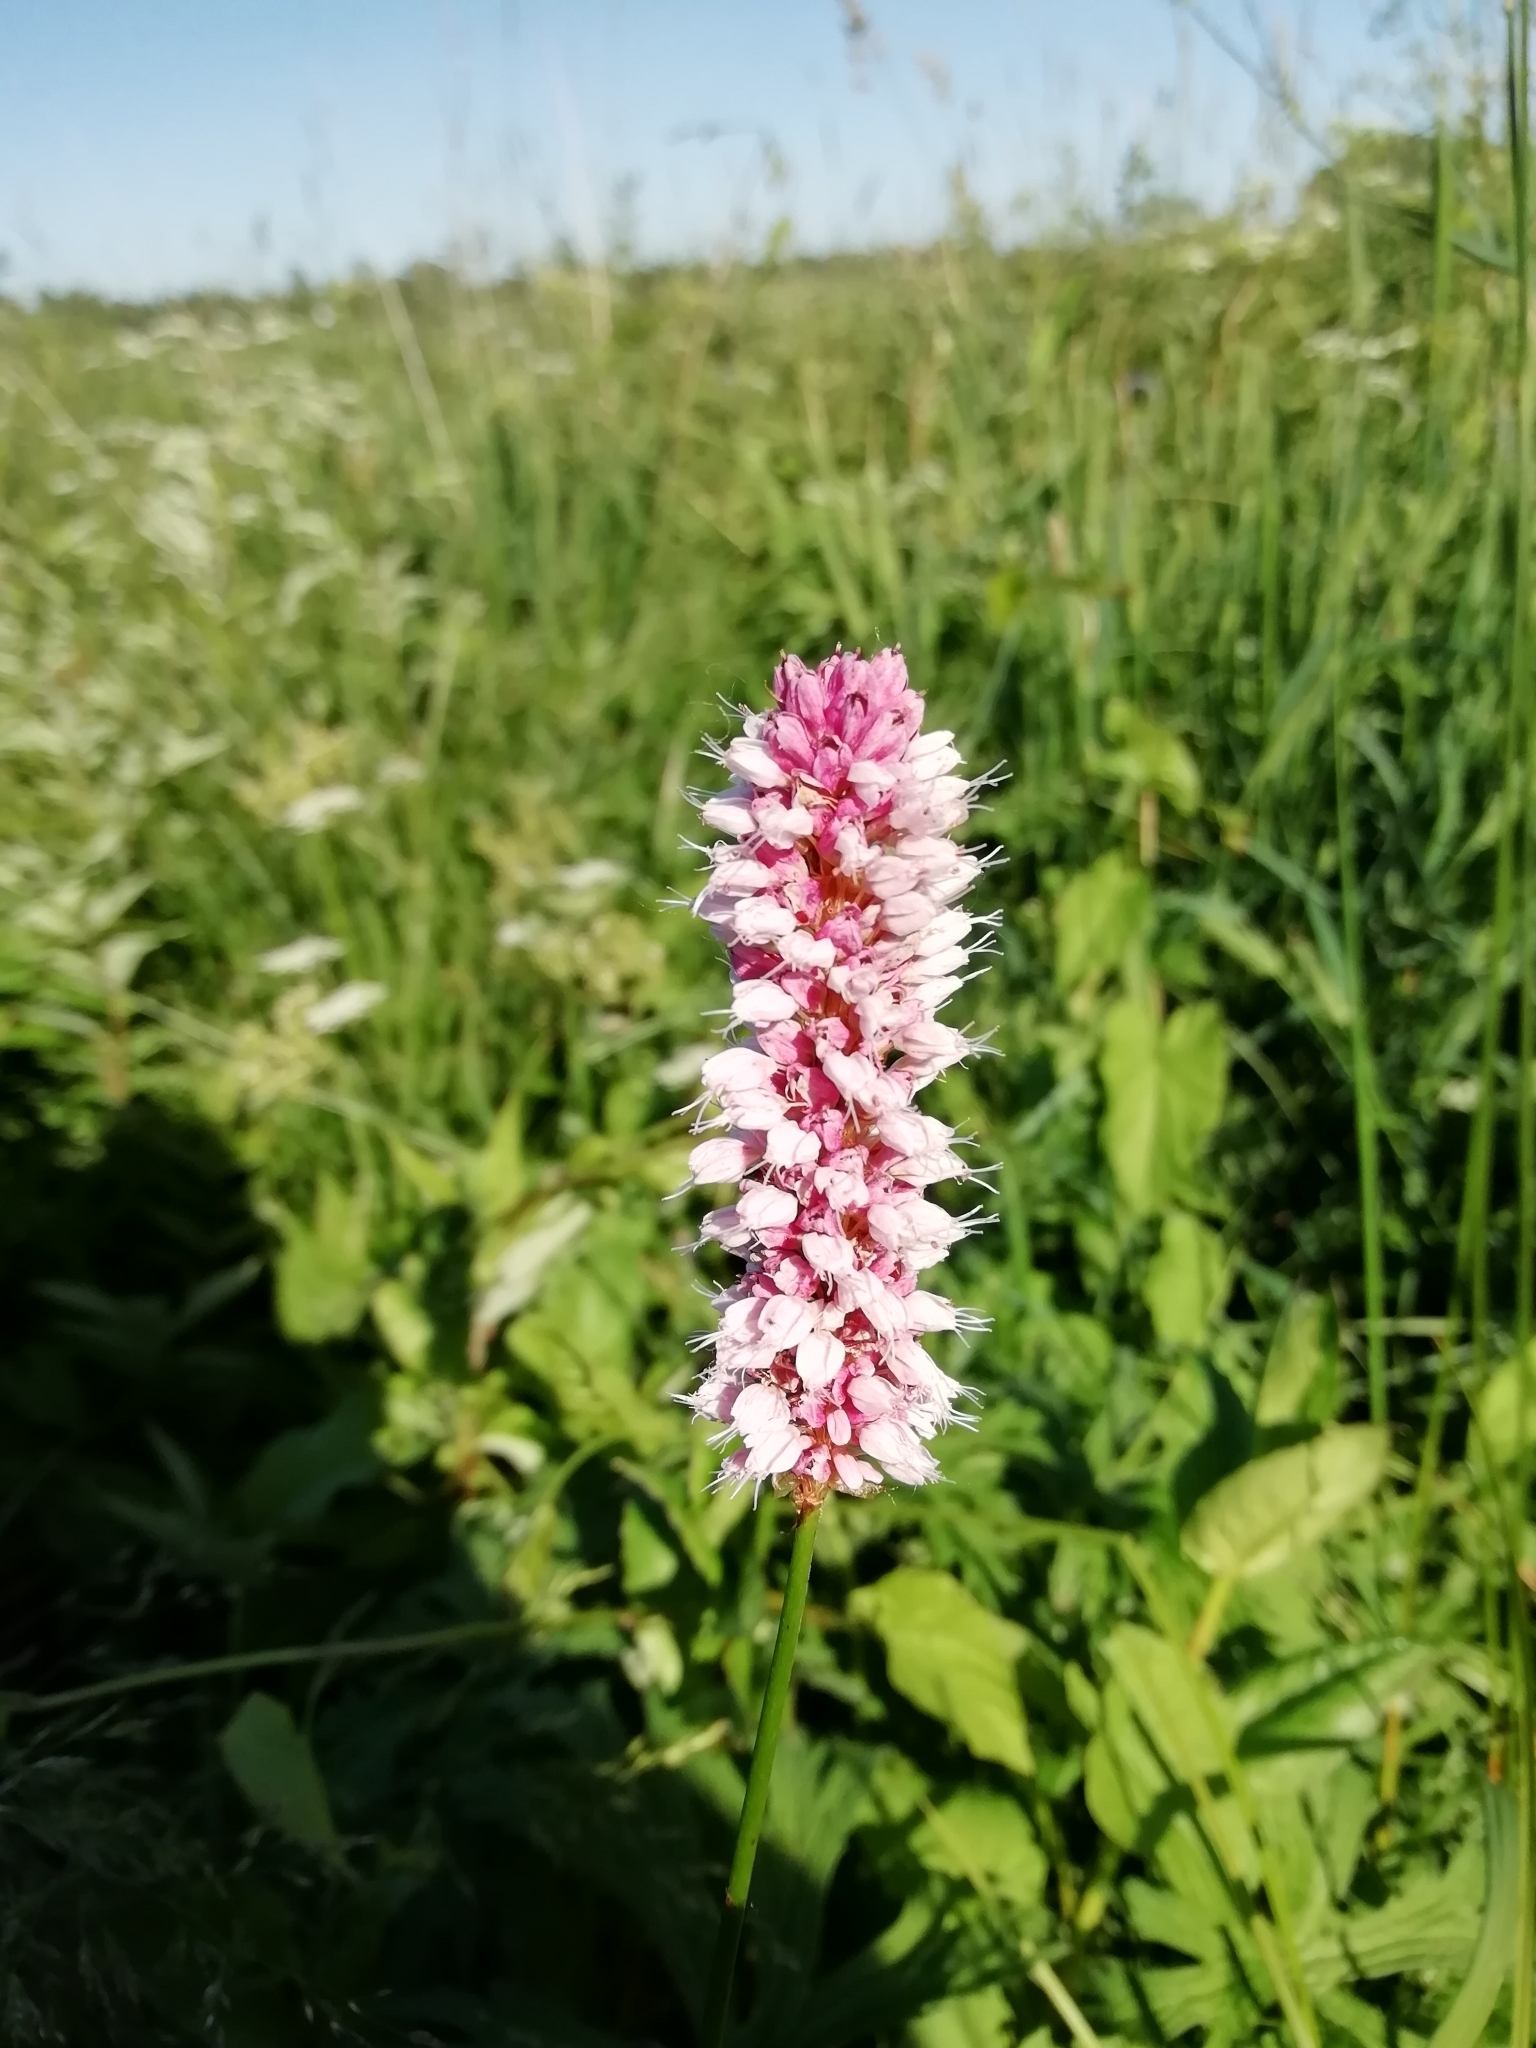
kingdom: Plantae
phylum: Tracheophyta
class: Magnoliopsida
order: Caryophyllales
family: Polygonaceae
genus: Bistorta
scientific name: Bistorta officinalis
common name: Common bistort
